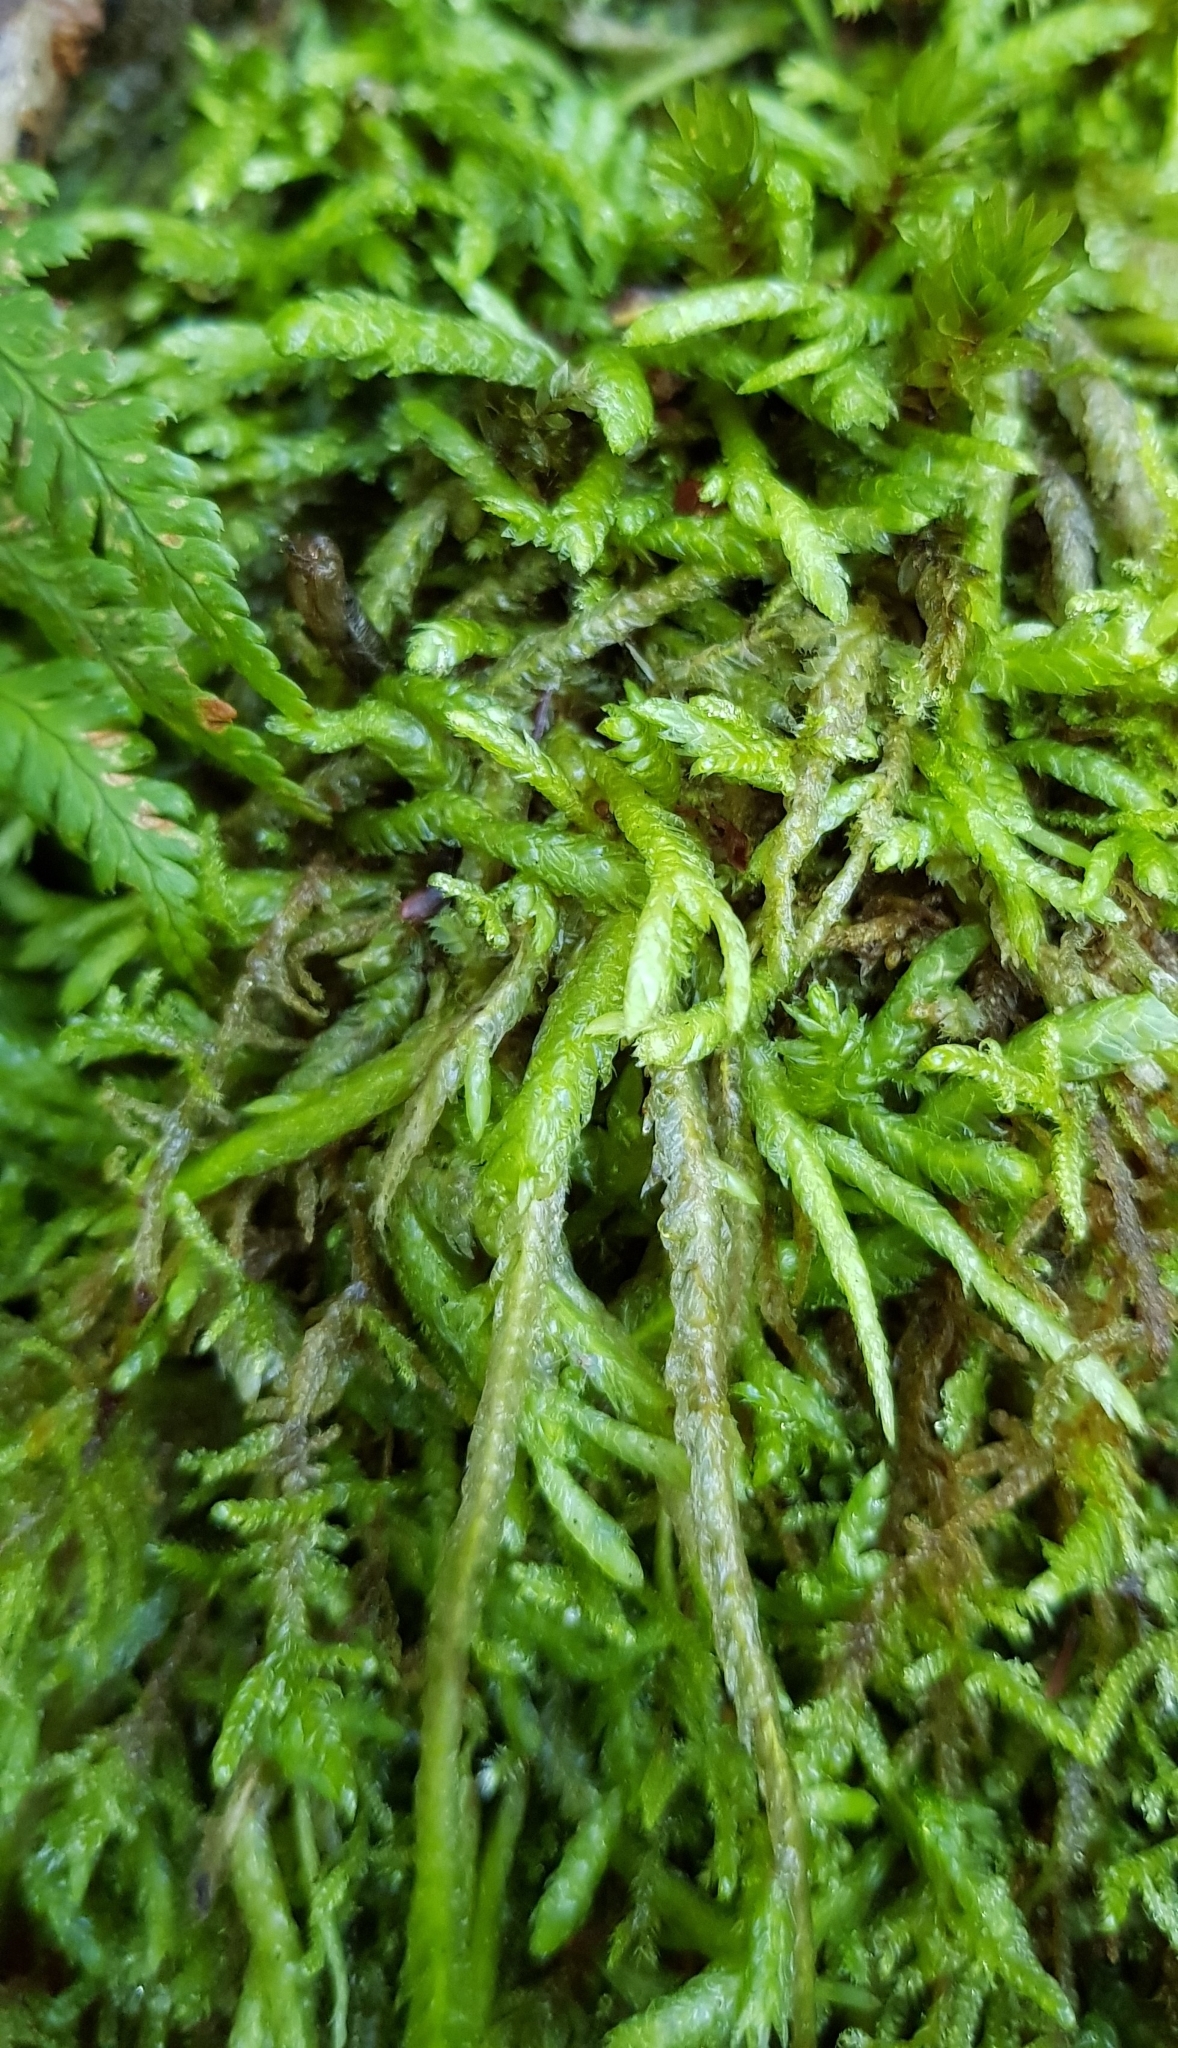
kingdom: Plantae
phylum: Bryophyta
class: Bryopsida
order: Hypnales
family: Plagiotheciaceae
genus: Plagiothecium
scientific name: Plagiothecium undulatum
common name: Waved silk-moss
